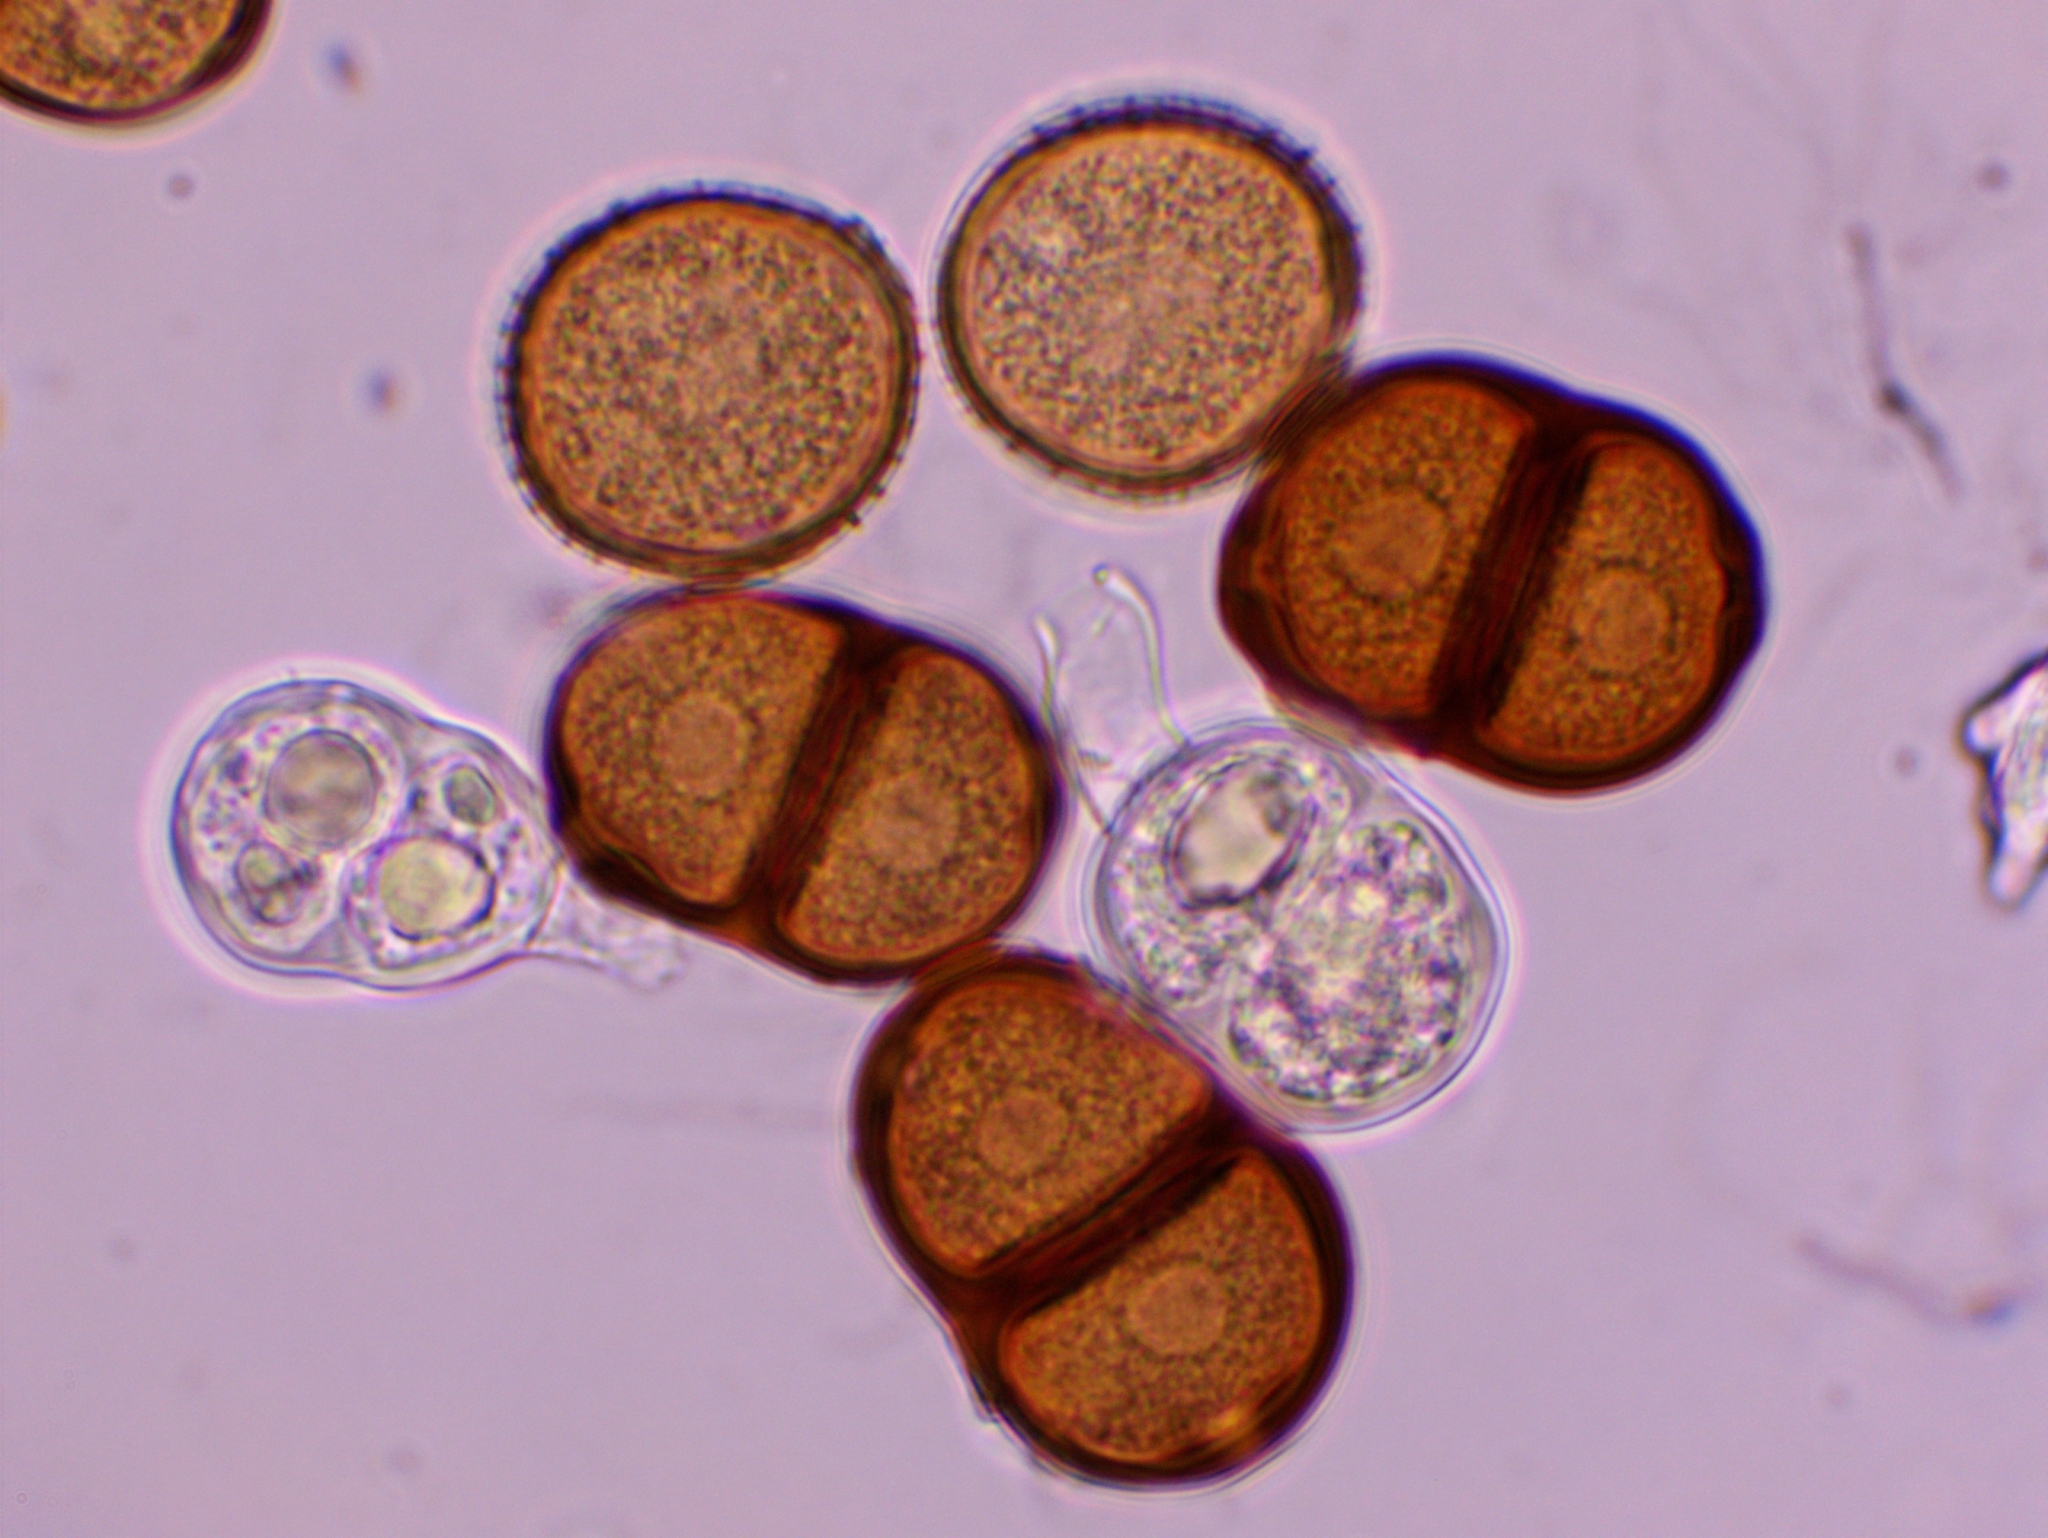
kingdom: Fungi
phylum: Basidiomycota
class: Pucciniomycetes
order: Pucciniales
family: Pucciniaceae
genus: Puccinia
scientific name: Puccinia bupleuri
